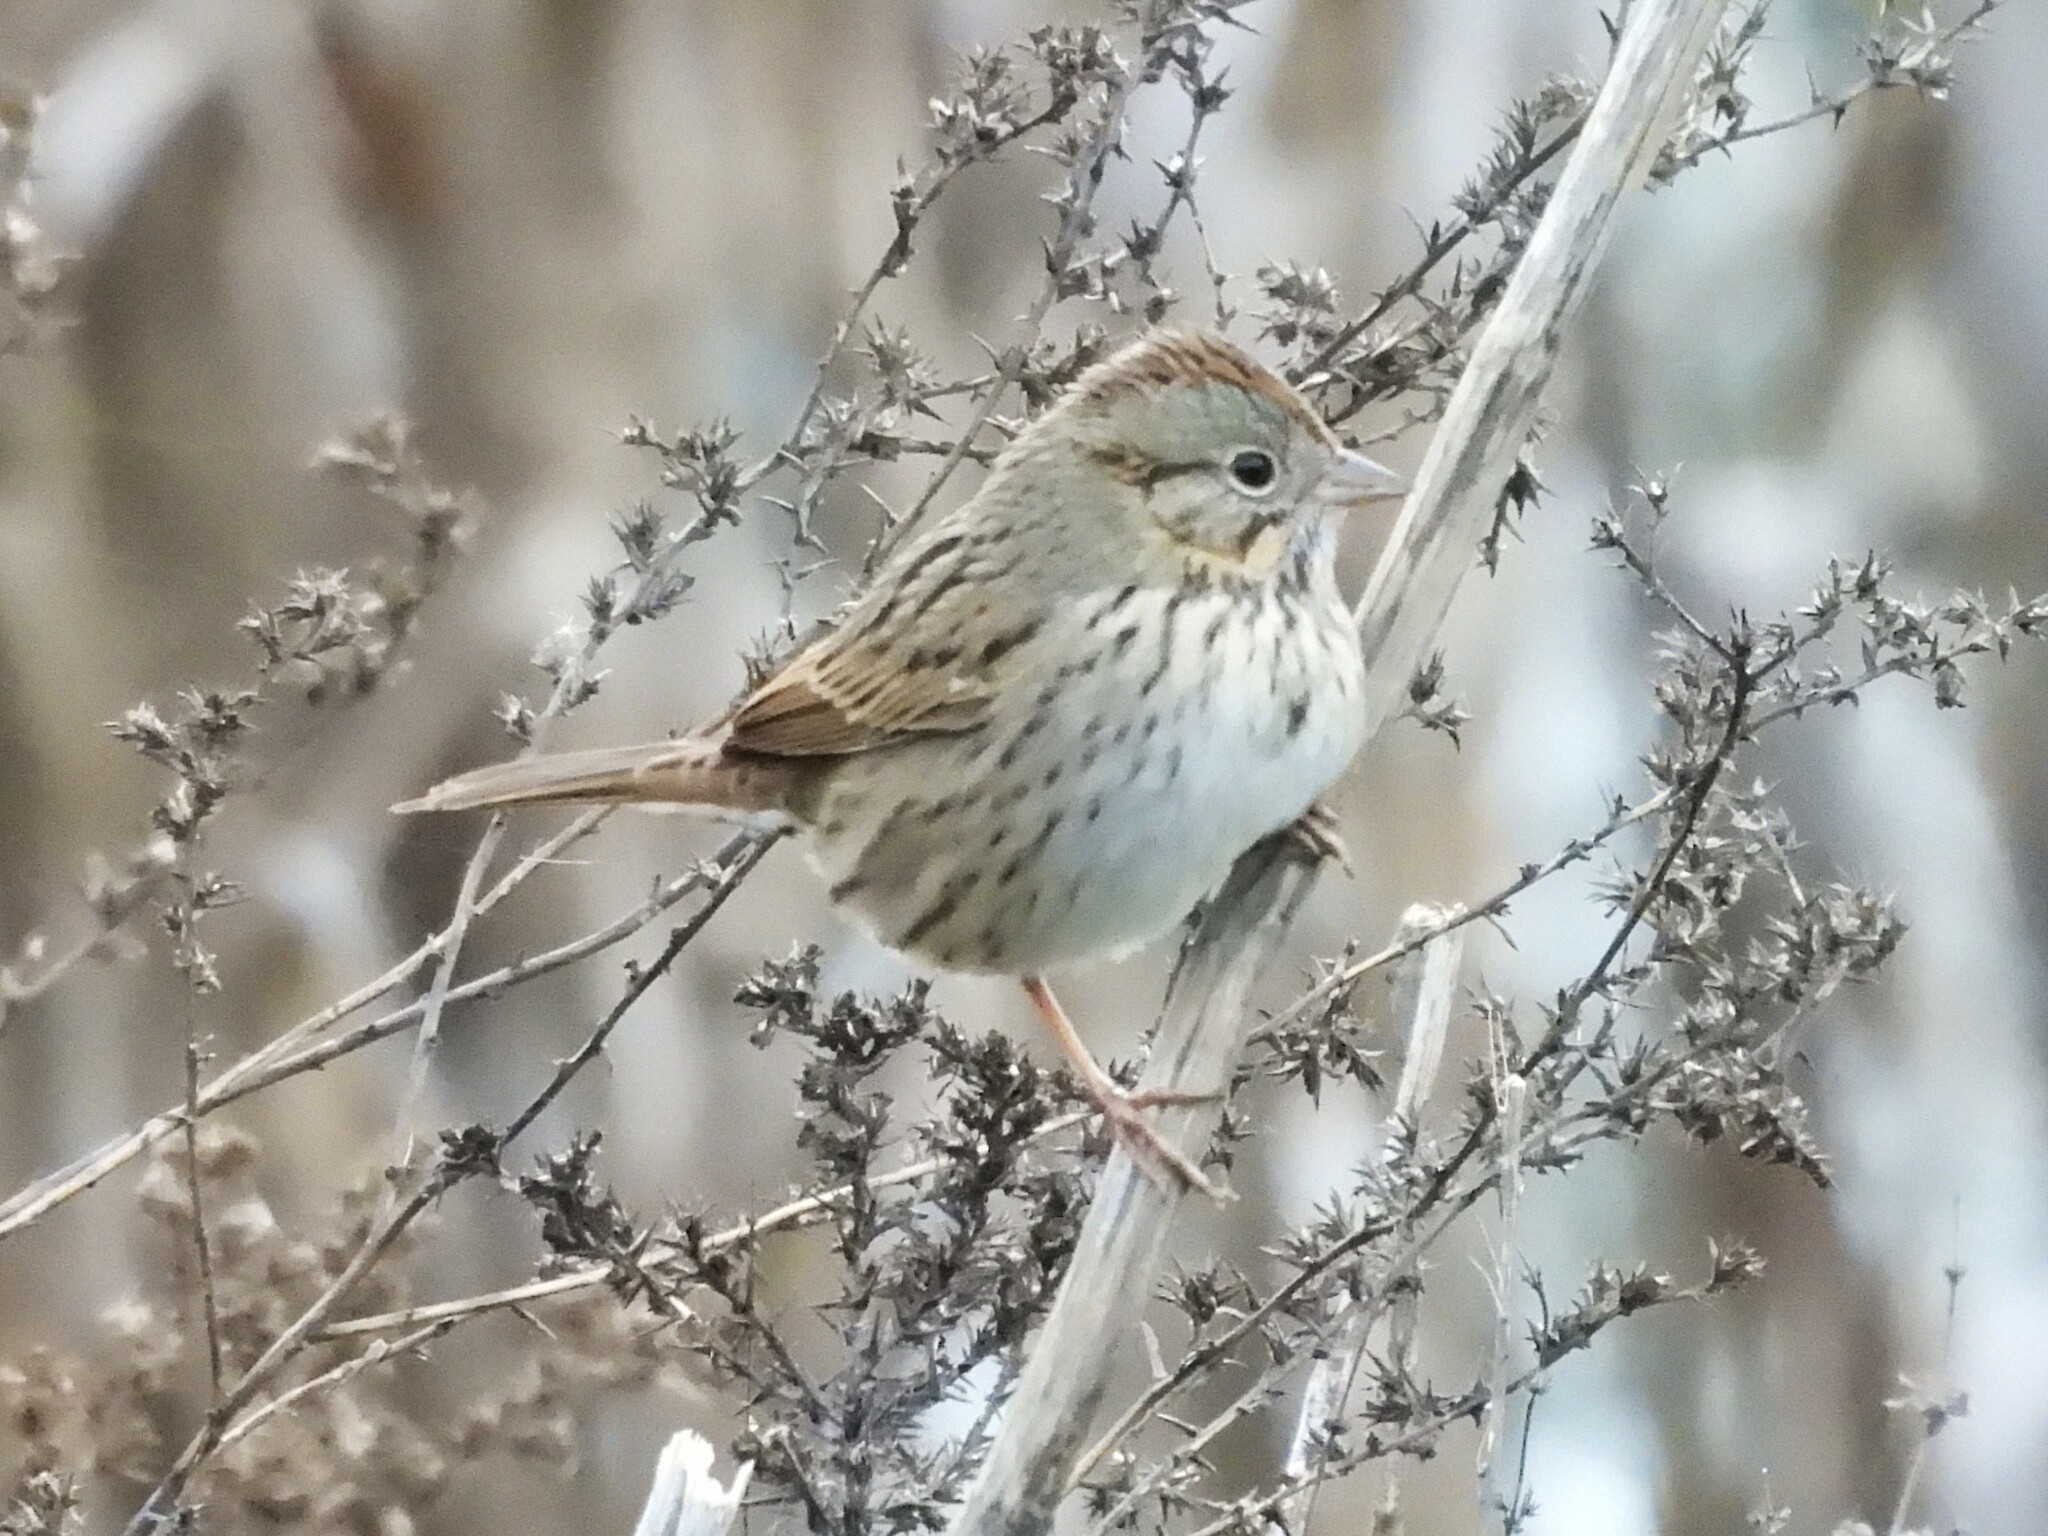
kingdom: Animalia
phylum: Chordata
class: Aves
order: Passeriformes
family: Passerellidae
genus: Melospiza
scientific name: Melospiza lincolnii
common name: Lincoln's sparrow
